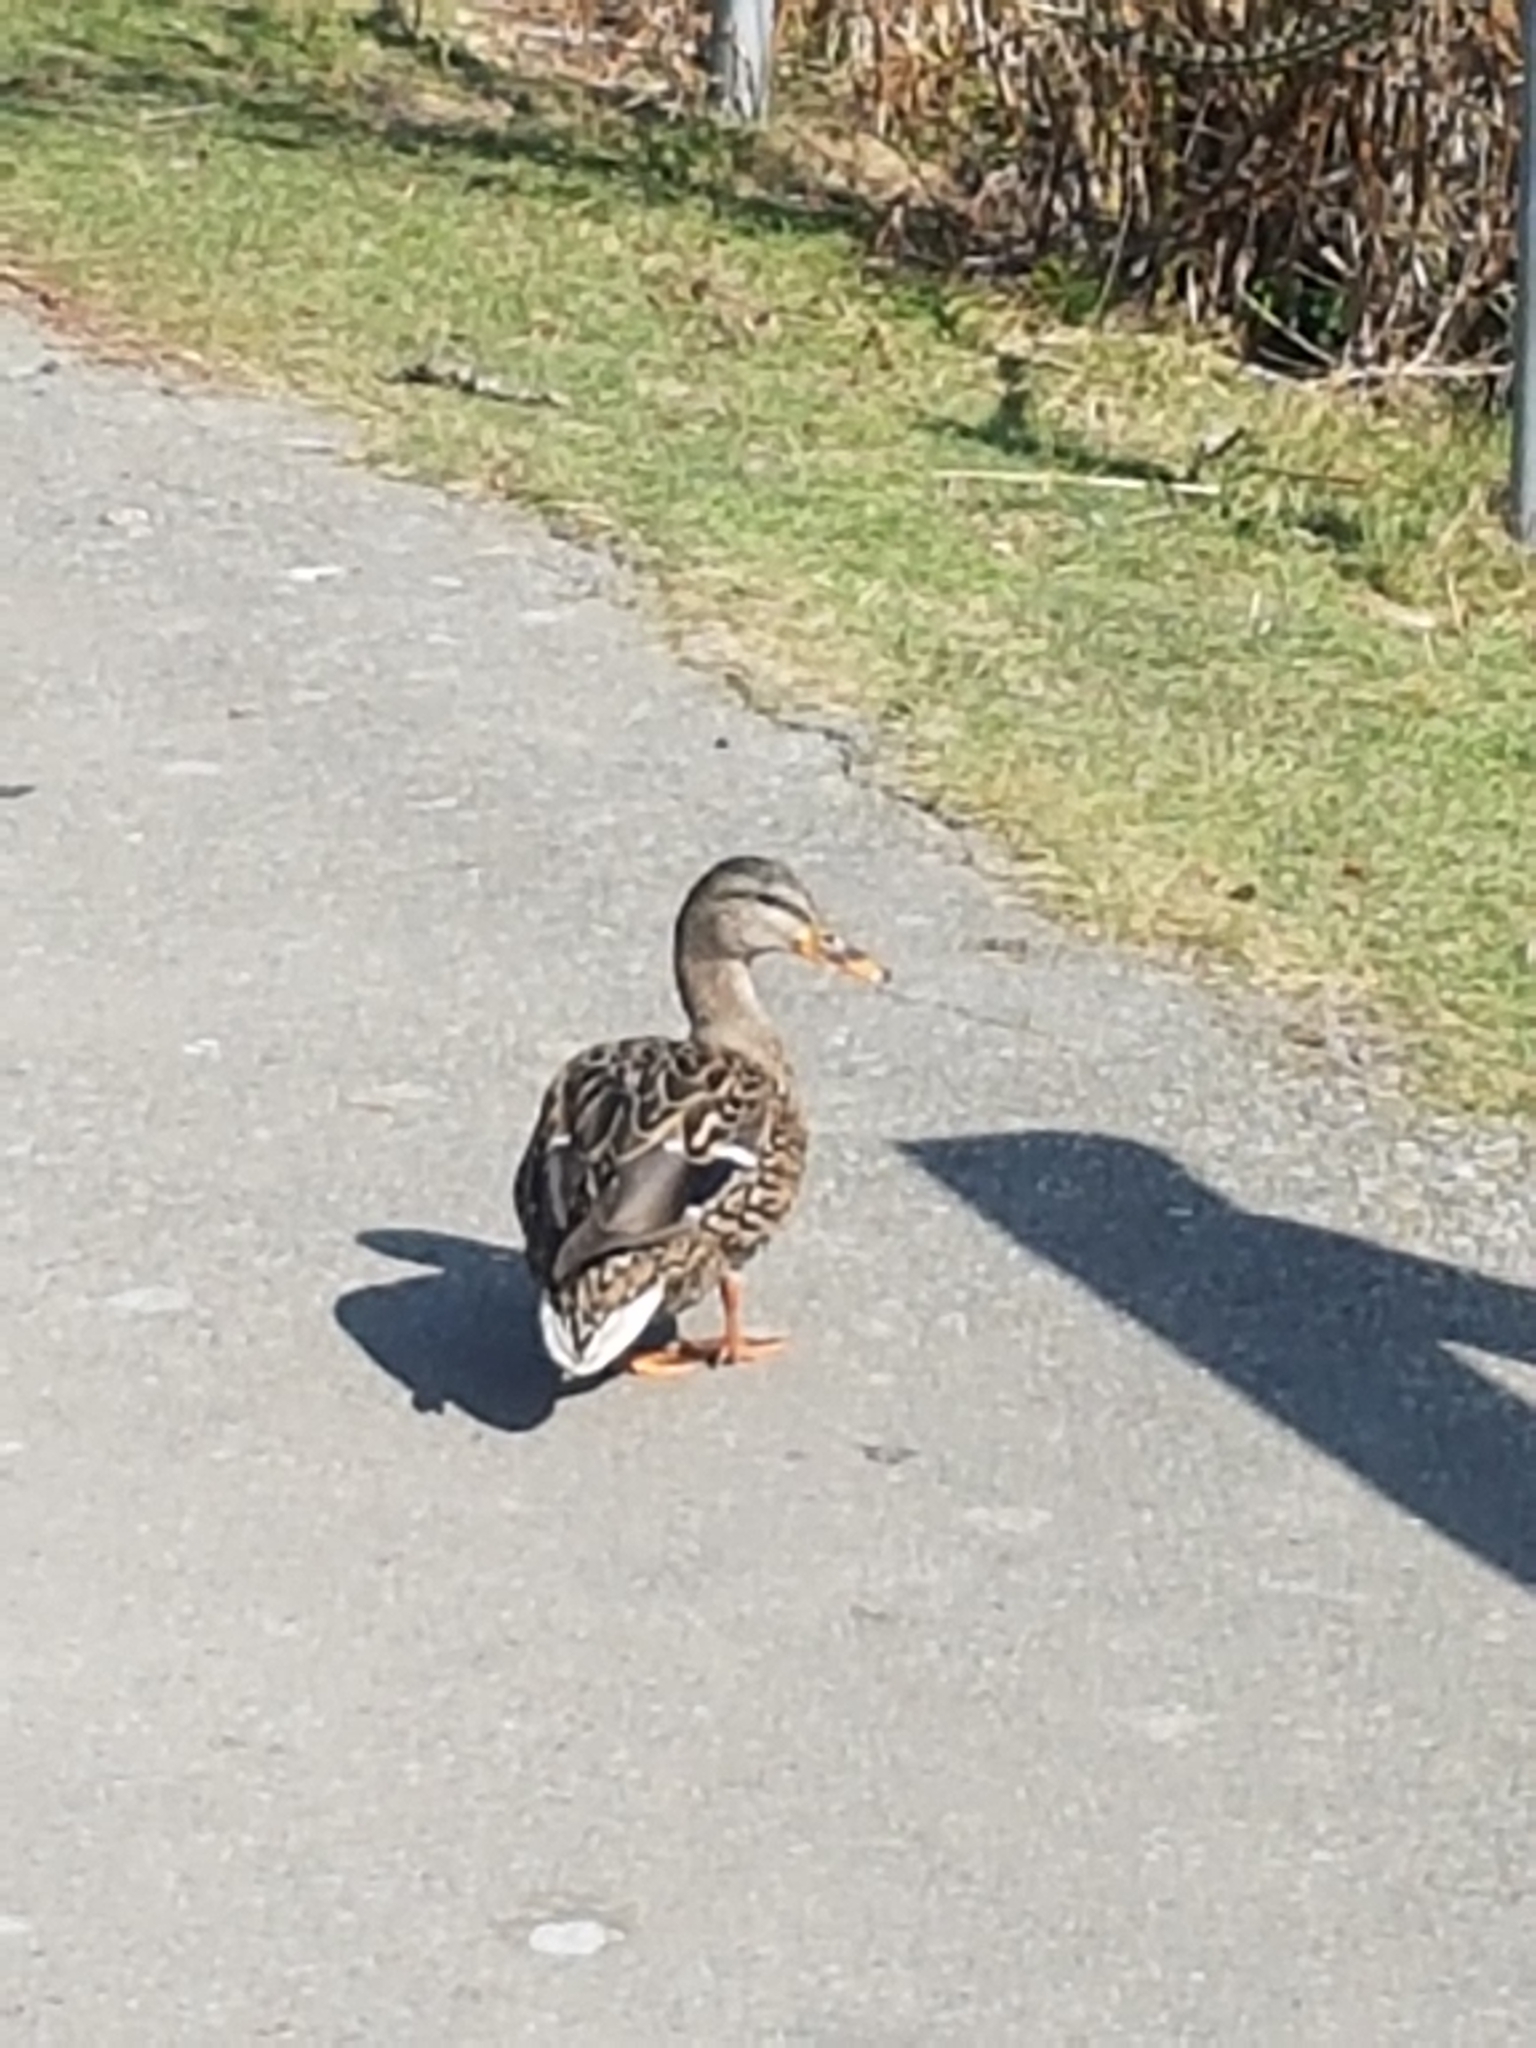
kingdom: Animalia
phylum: Chordata
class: Aves
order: Anseriformes
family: Anatidae
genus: Anas
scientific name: Anas platyrhynchos
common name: Mallard
